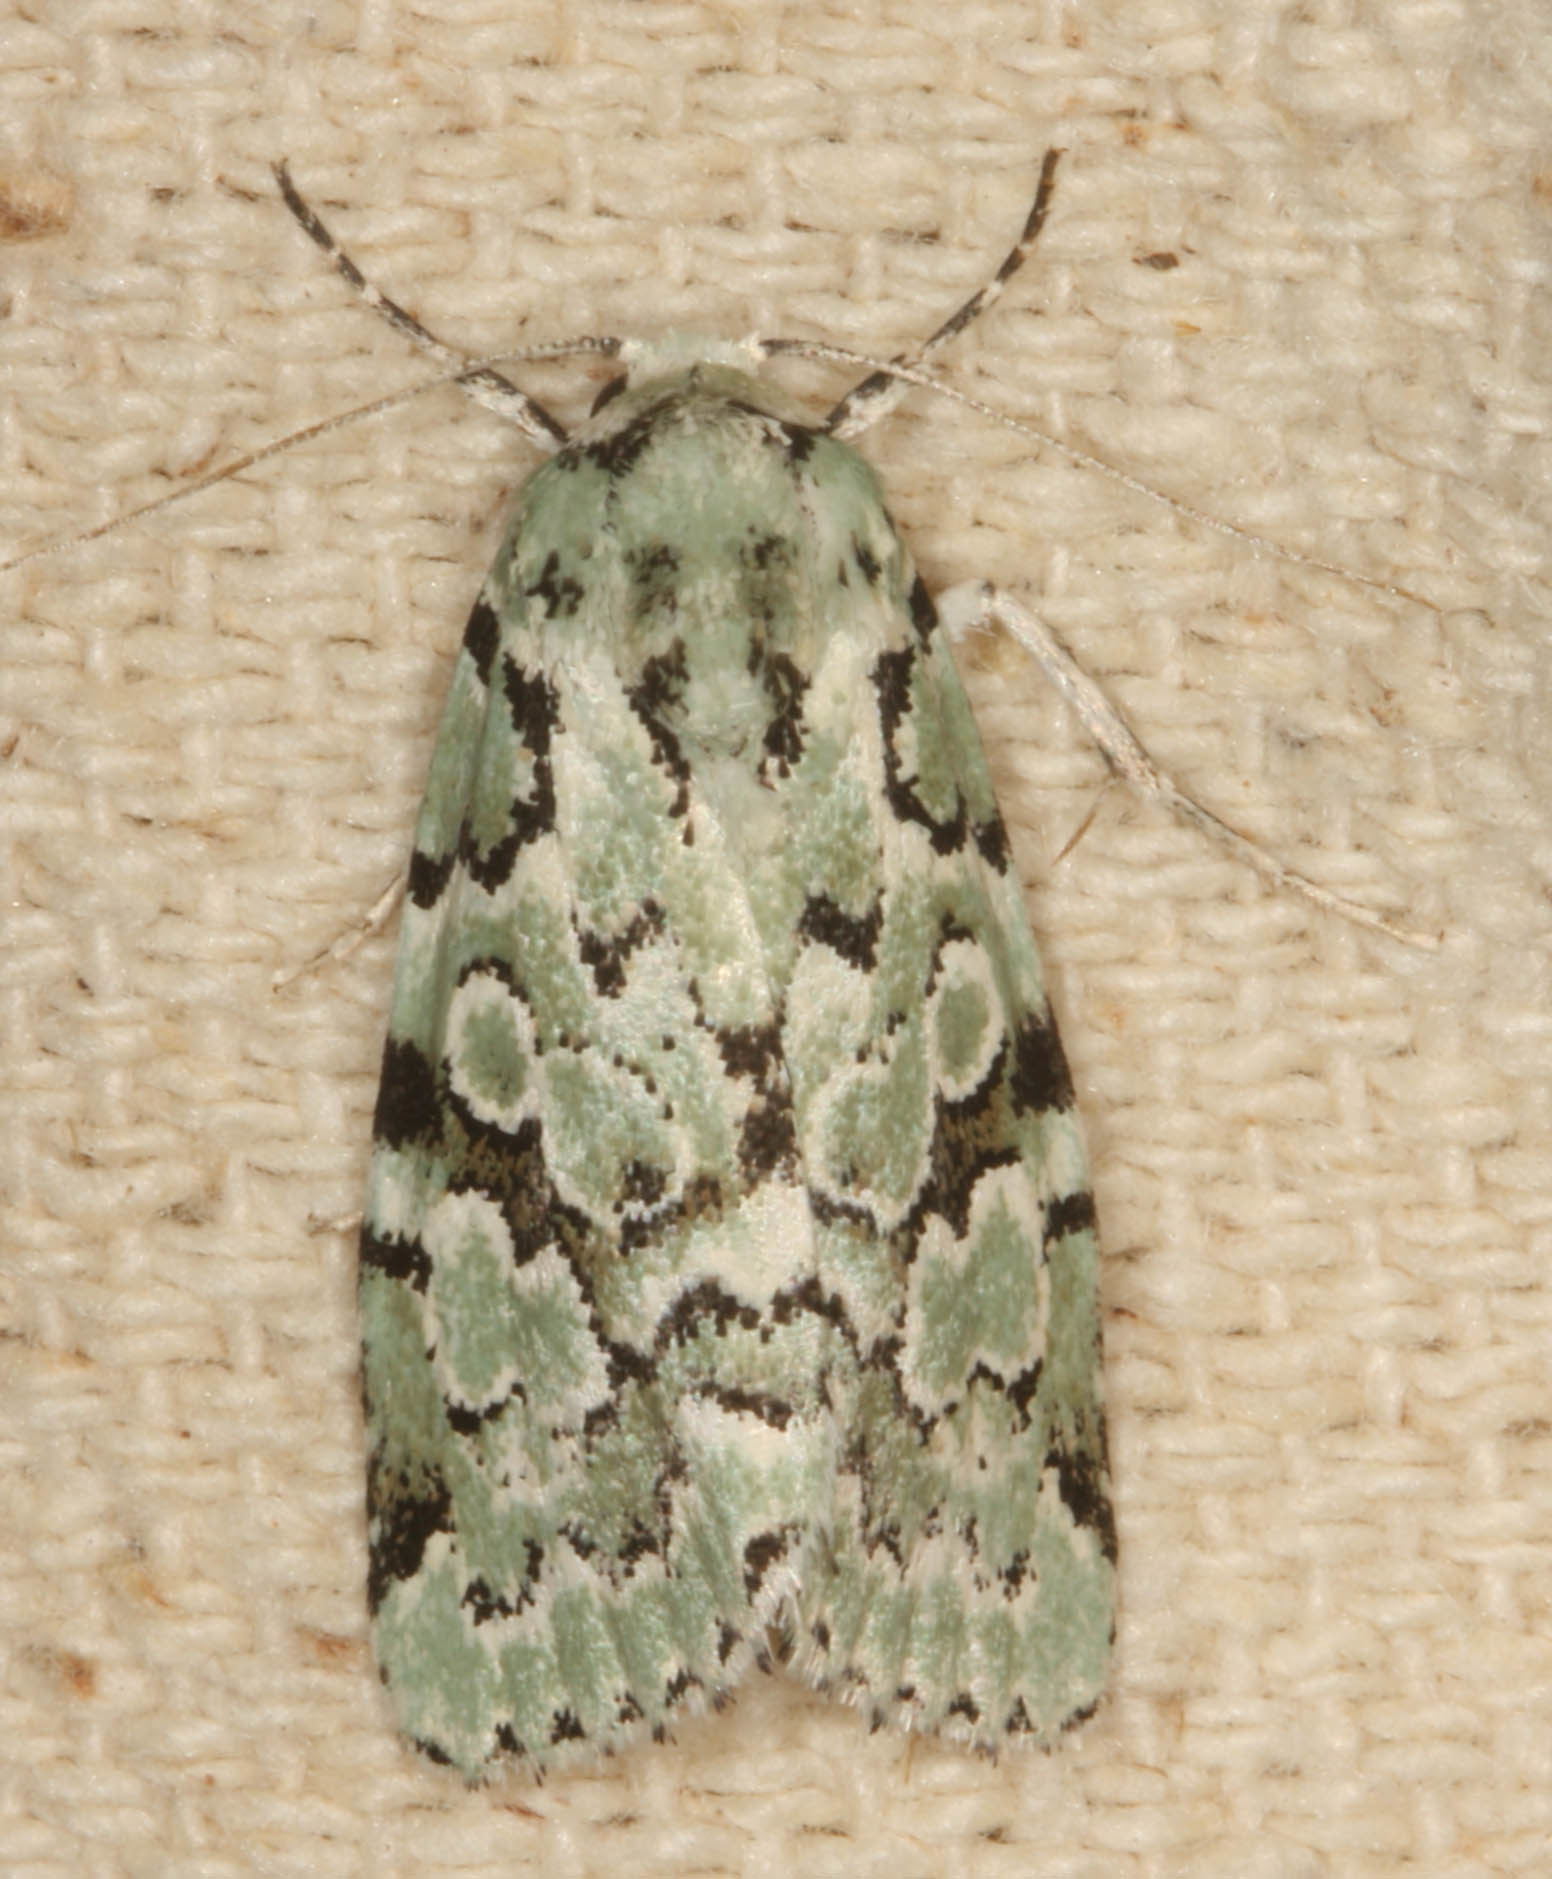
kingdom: Animalia
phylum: Arthropoda
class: Insecta
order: Lepidoptera
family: Noctuidae
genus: Bryolymnia
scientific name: Bryolymnia viridata
